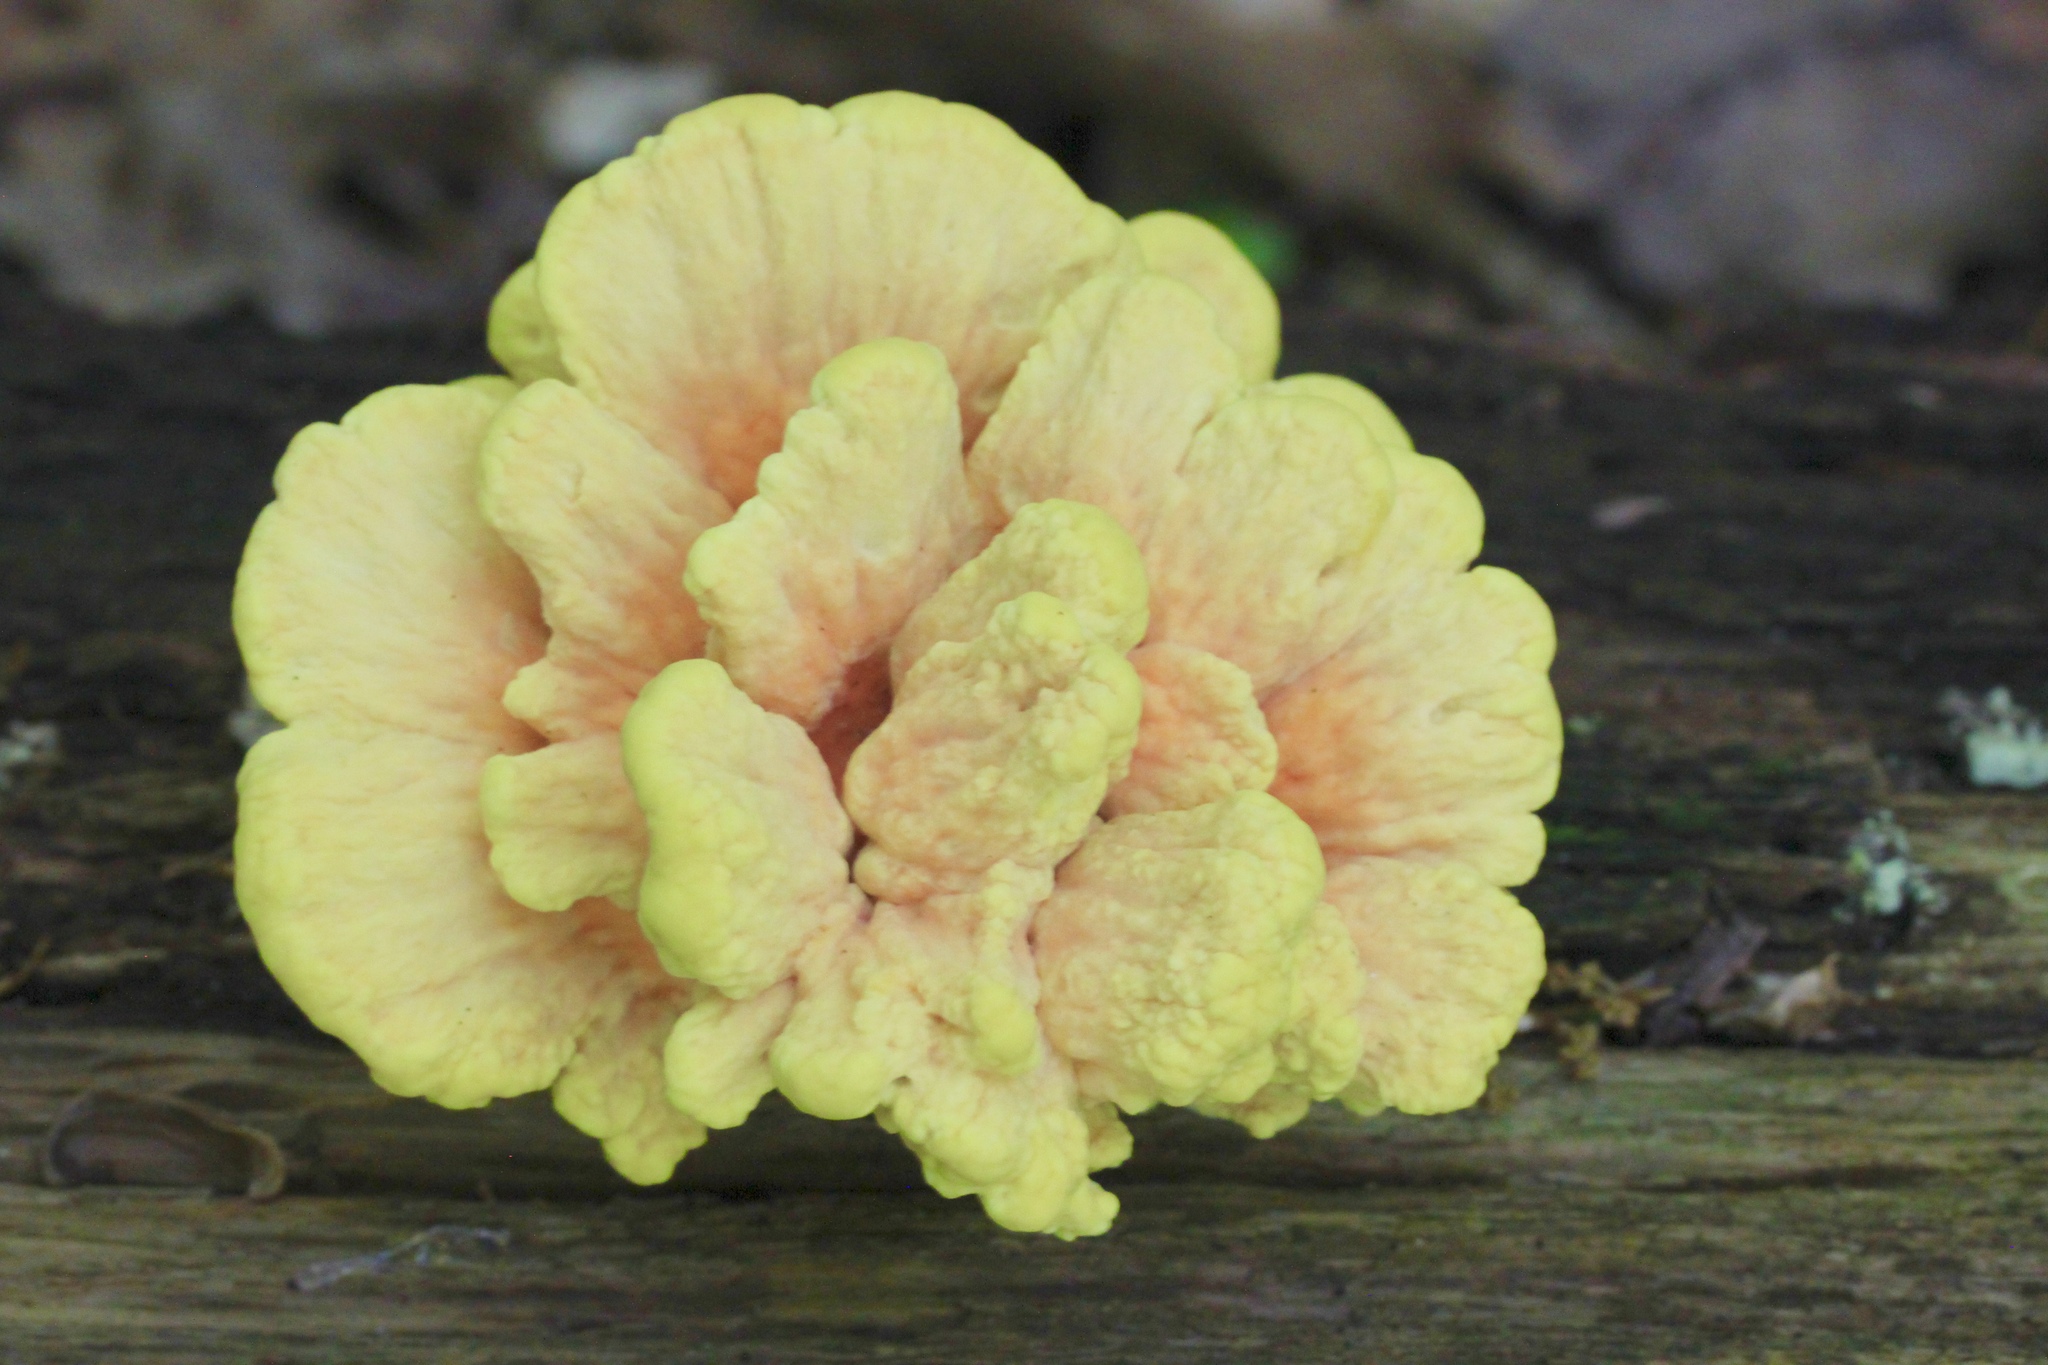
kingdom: Fungi
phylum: Basidiomycota
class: Agaricomycetes
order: Polyporales
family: Laetiporaceae
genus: Laetiporus
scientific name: Laetiporus sulphureus
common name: Chicken of the woods
